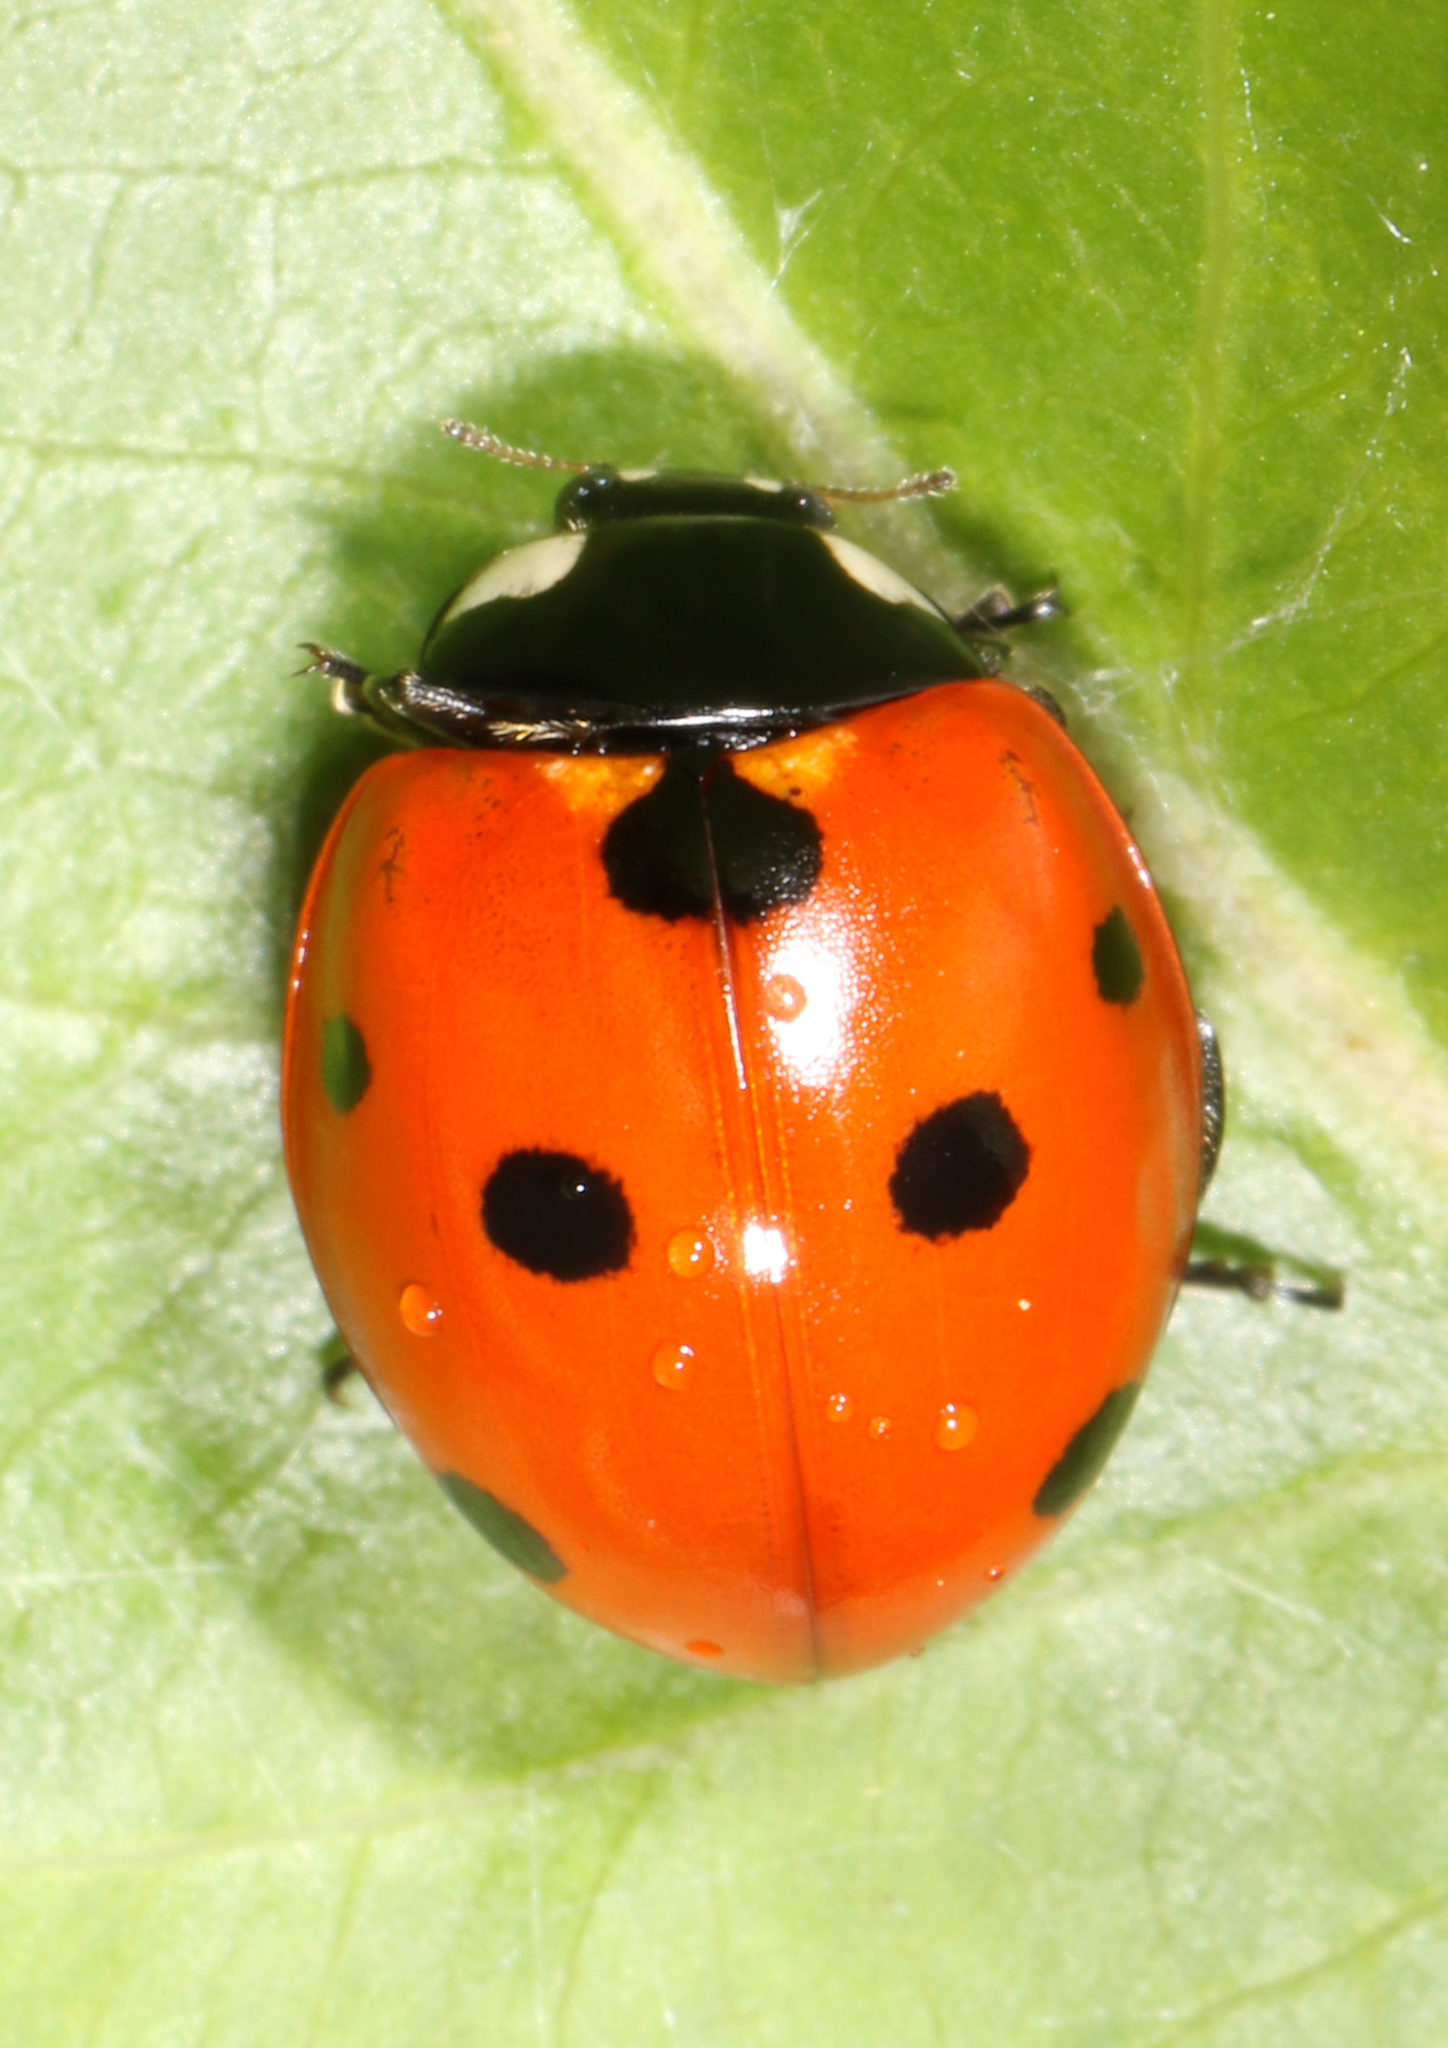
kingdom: Animalia
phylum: Arthropoda
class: Insecta
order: Coleoptera
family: Coccinellidae
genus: Coccinella
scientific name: Coccinella septempunctata
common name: Sevenspotted lady beetle
